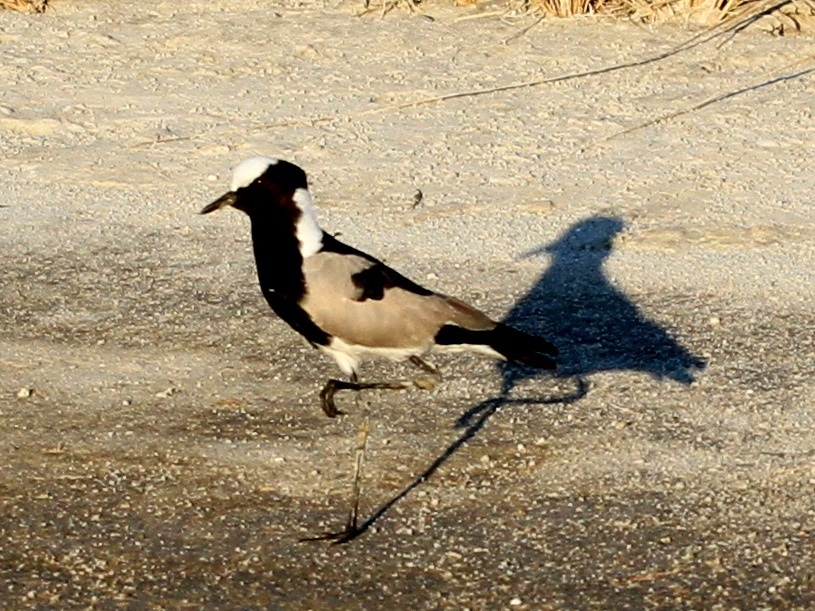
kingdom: Animalia
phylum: Chordata
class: Aves
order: Charadriiformes
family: Charadriidae
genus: Vanellus
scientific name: Vanellus armatus
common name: Blacksmith lapwing
